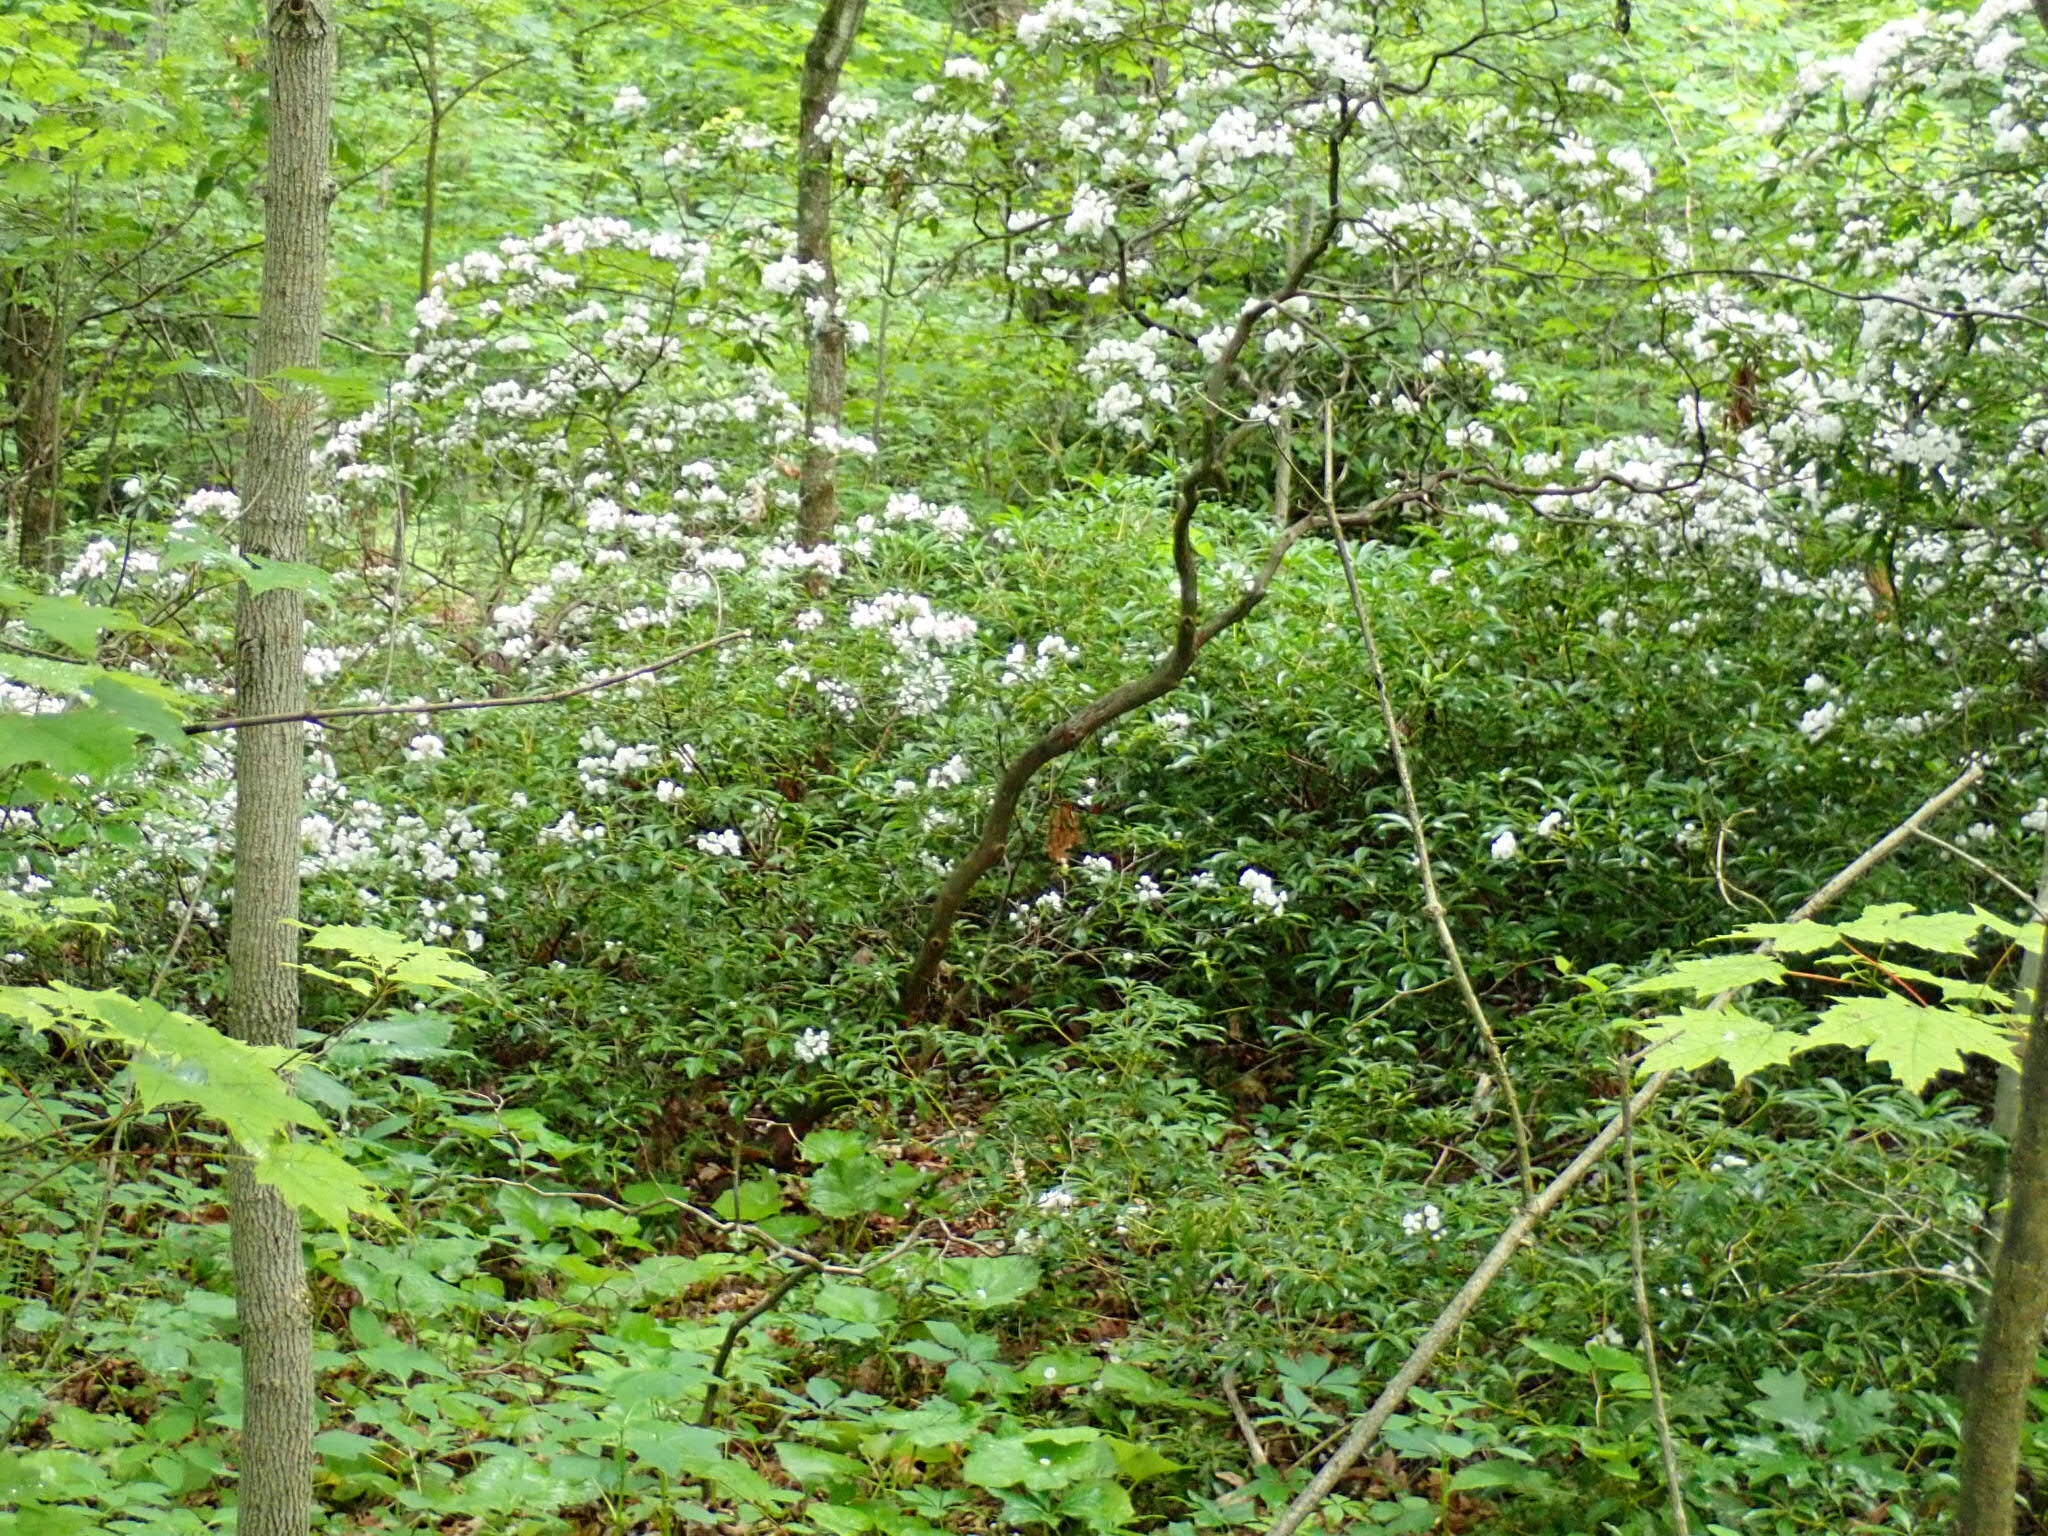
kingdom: Plantae
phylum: Tracheophyta
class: Magnoliopsida
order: Ericales
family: Ericaceae
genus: Kalmia
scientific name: Kalmia latifolia
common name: Mountain-laurel
